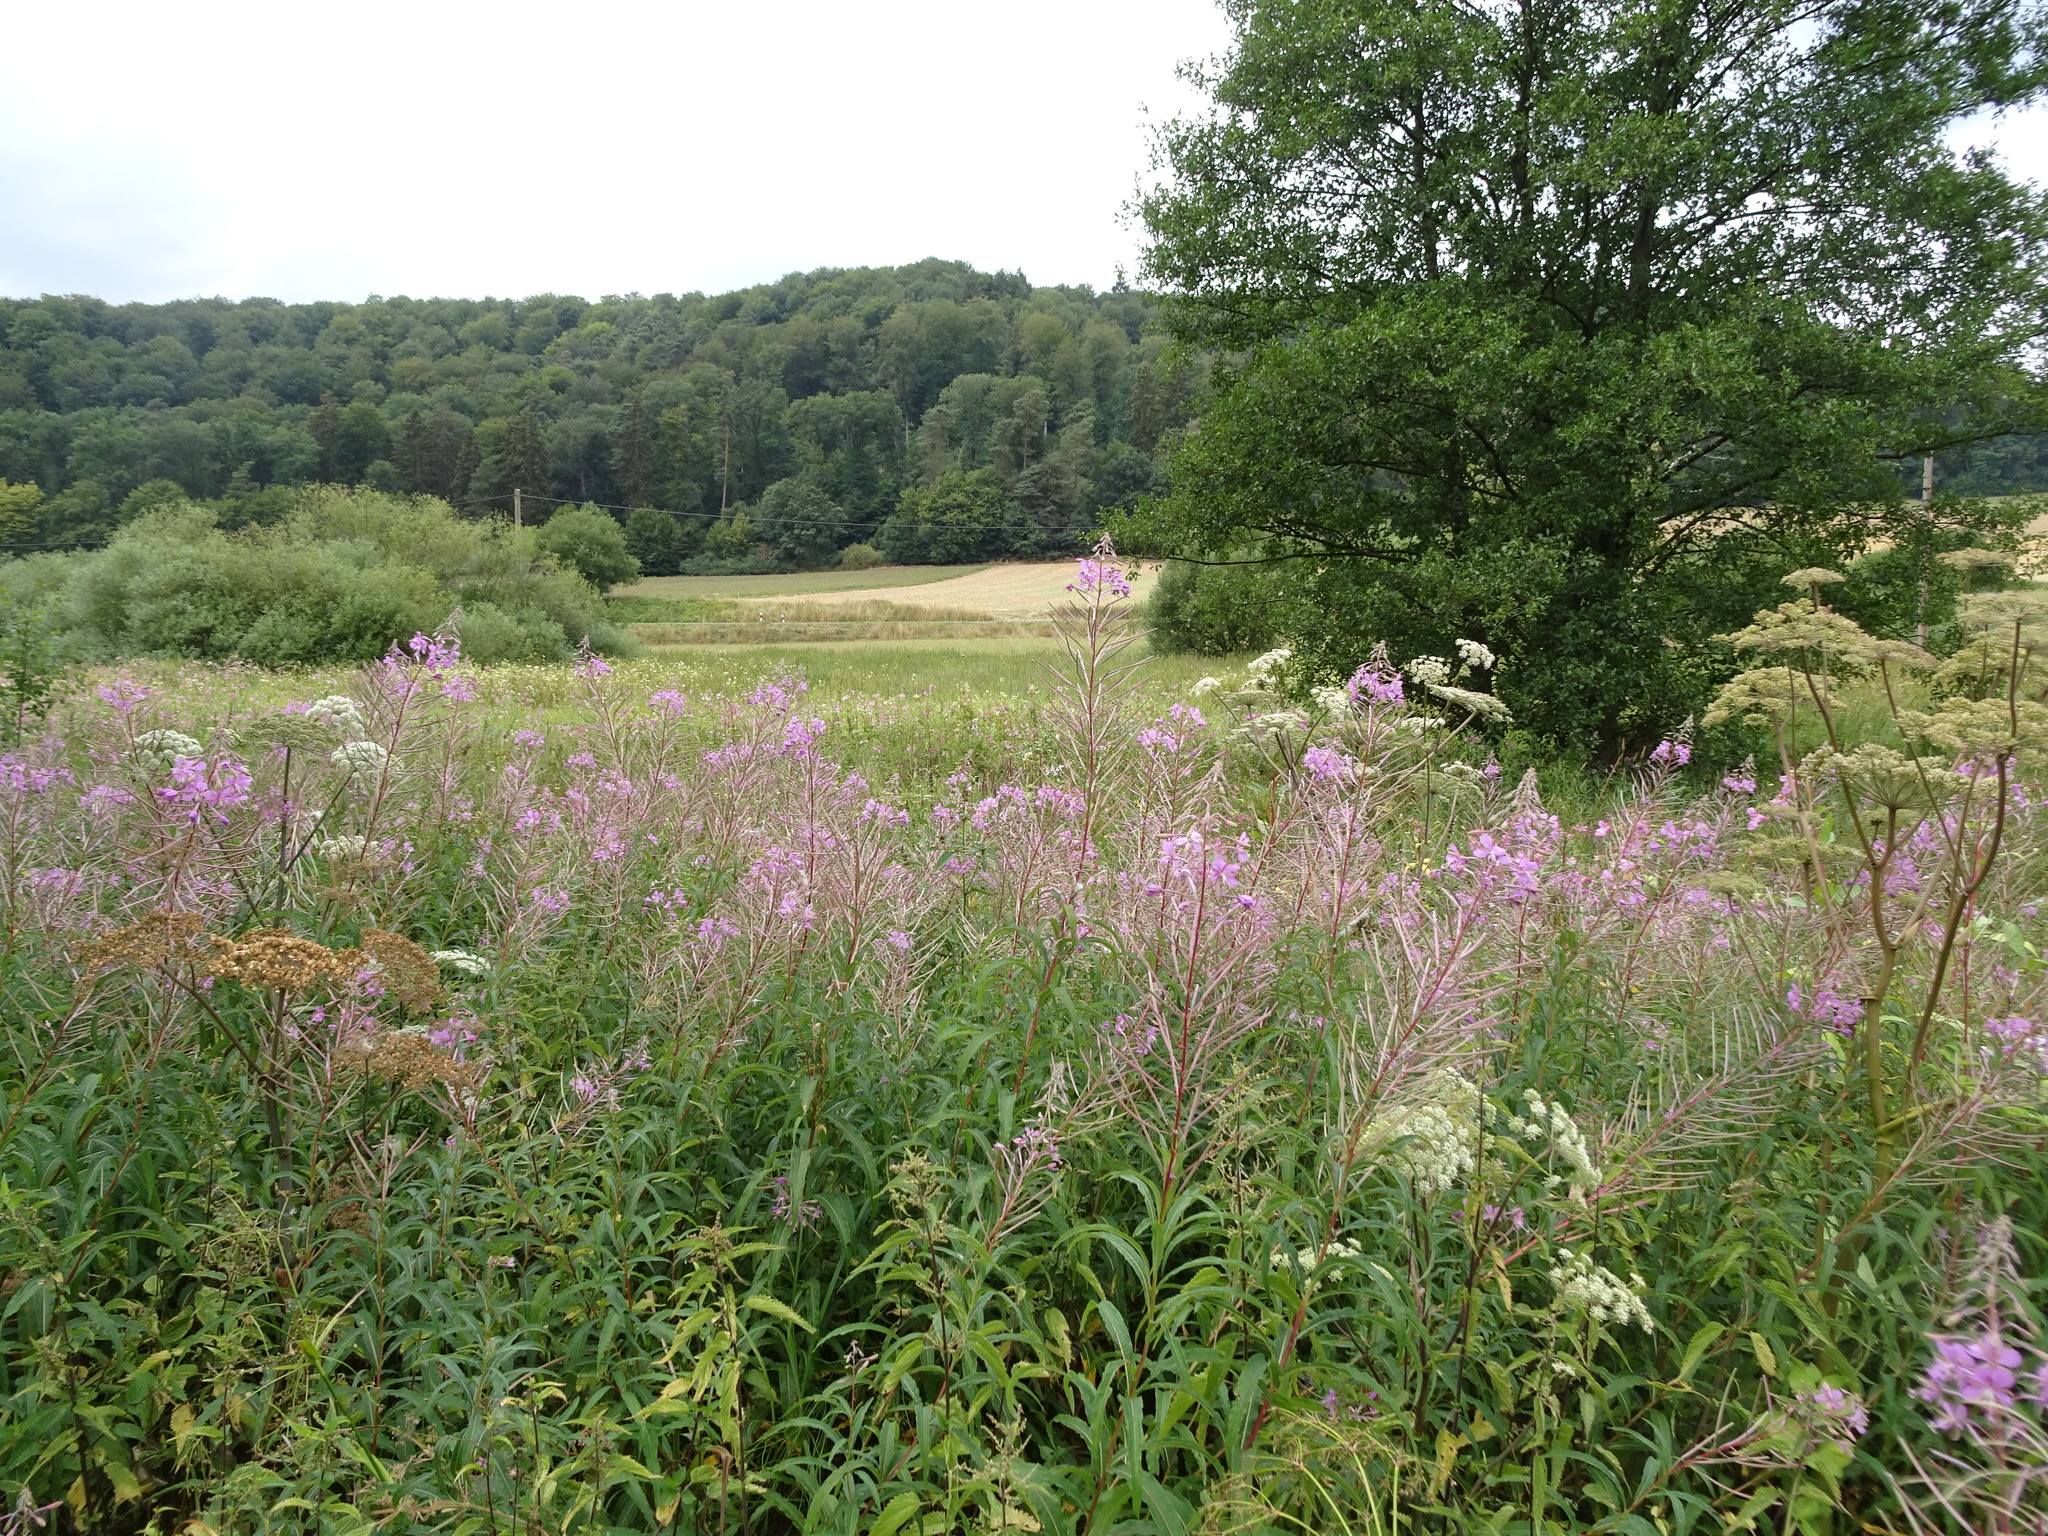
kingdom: Plantae
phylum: Tracheophyta
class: Magnoliopsida
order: Myrtales
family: Onagraceae
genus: Chamaenerion
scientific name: Chamaenerion angustifolium
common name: Fireweed
